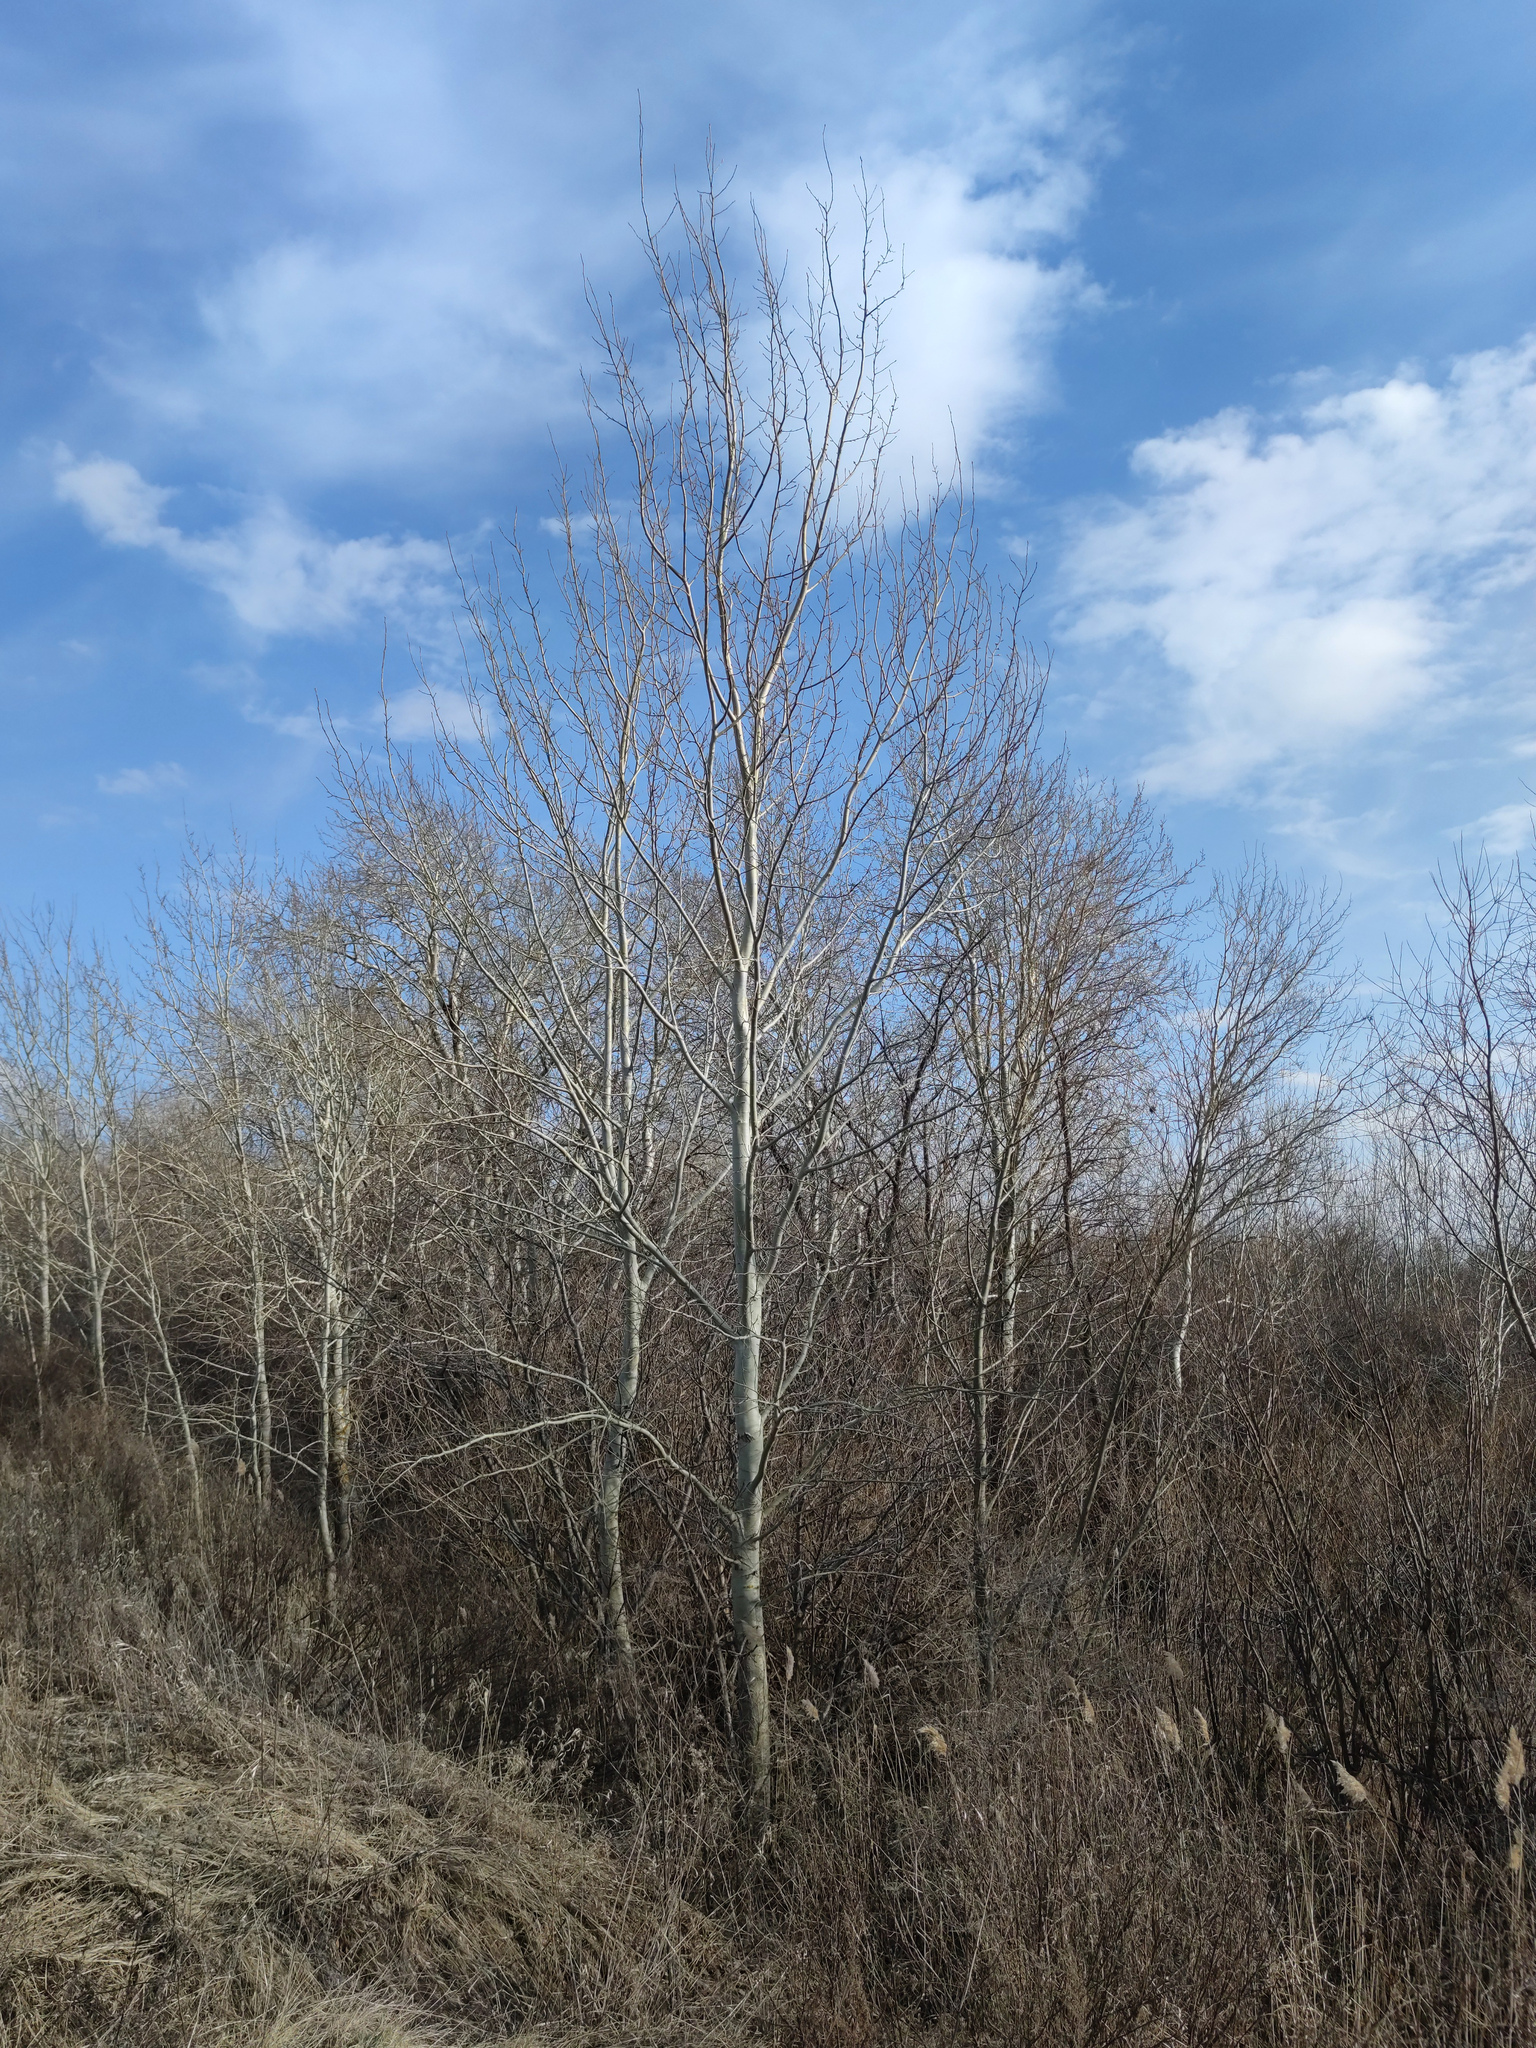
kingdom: Plantae
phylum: Tracheophyta
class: Magnoliopsida
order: Malpighiales
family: Salicaceae
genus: Populus
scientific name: Populus tremula
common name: European aspen
